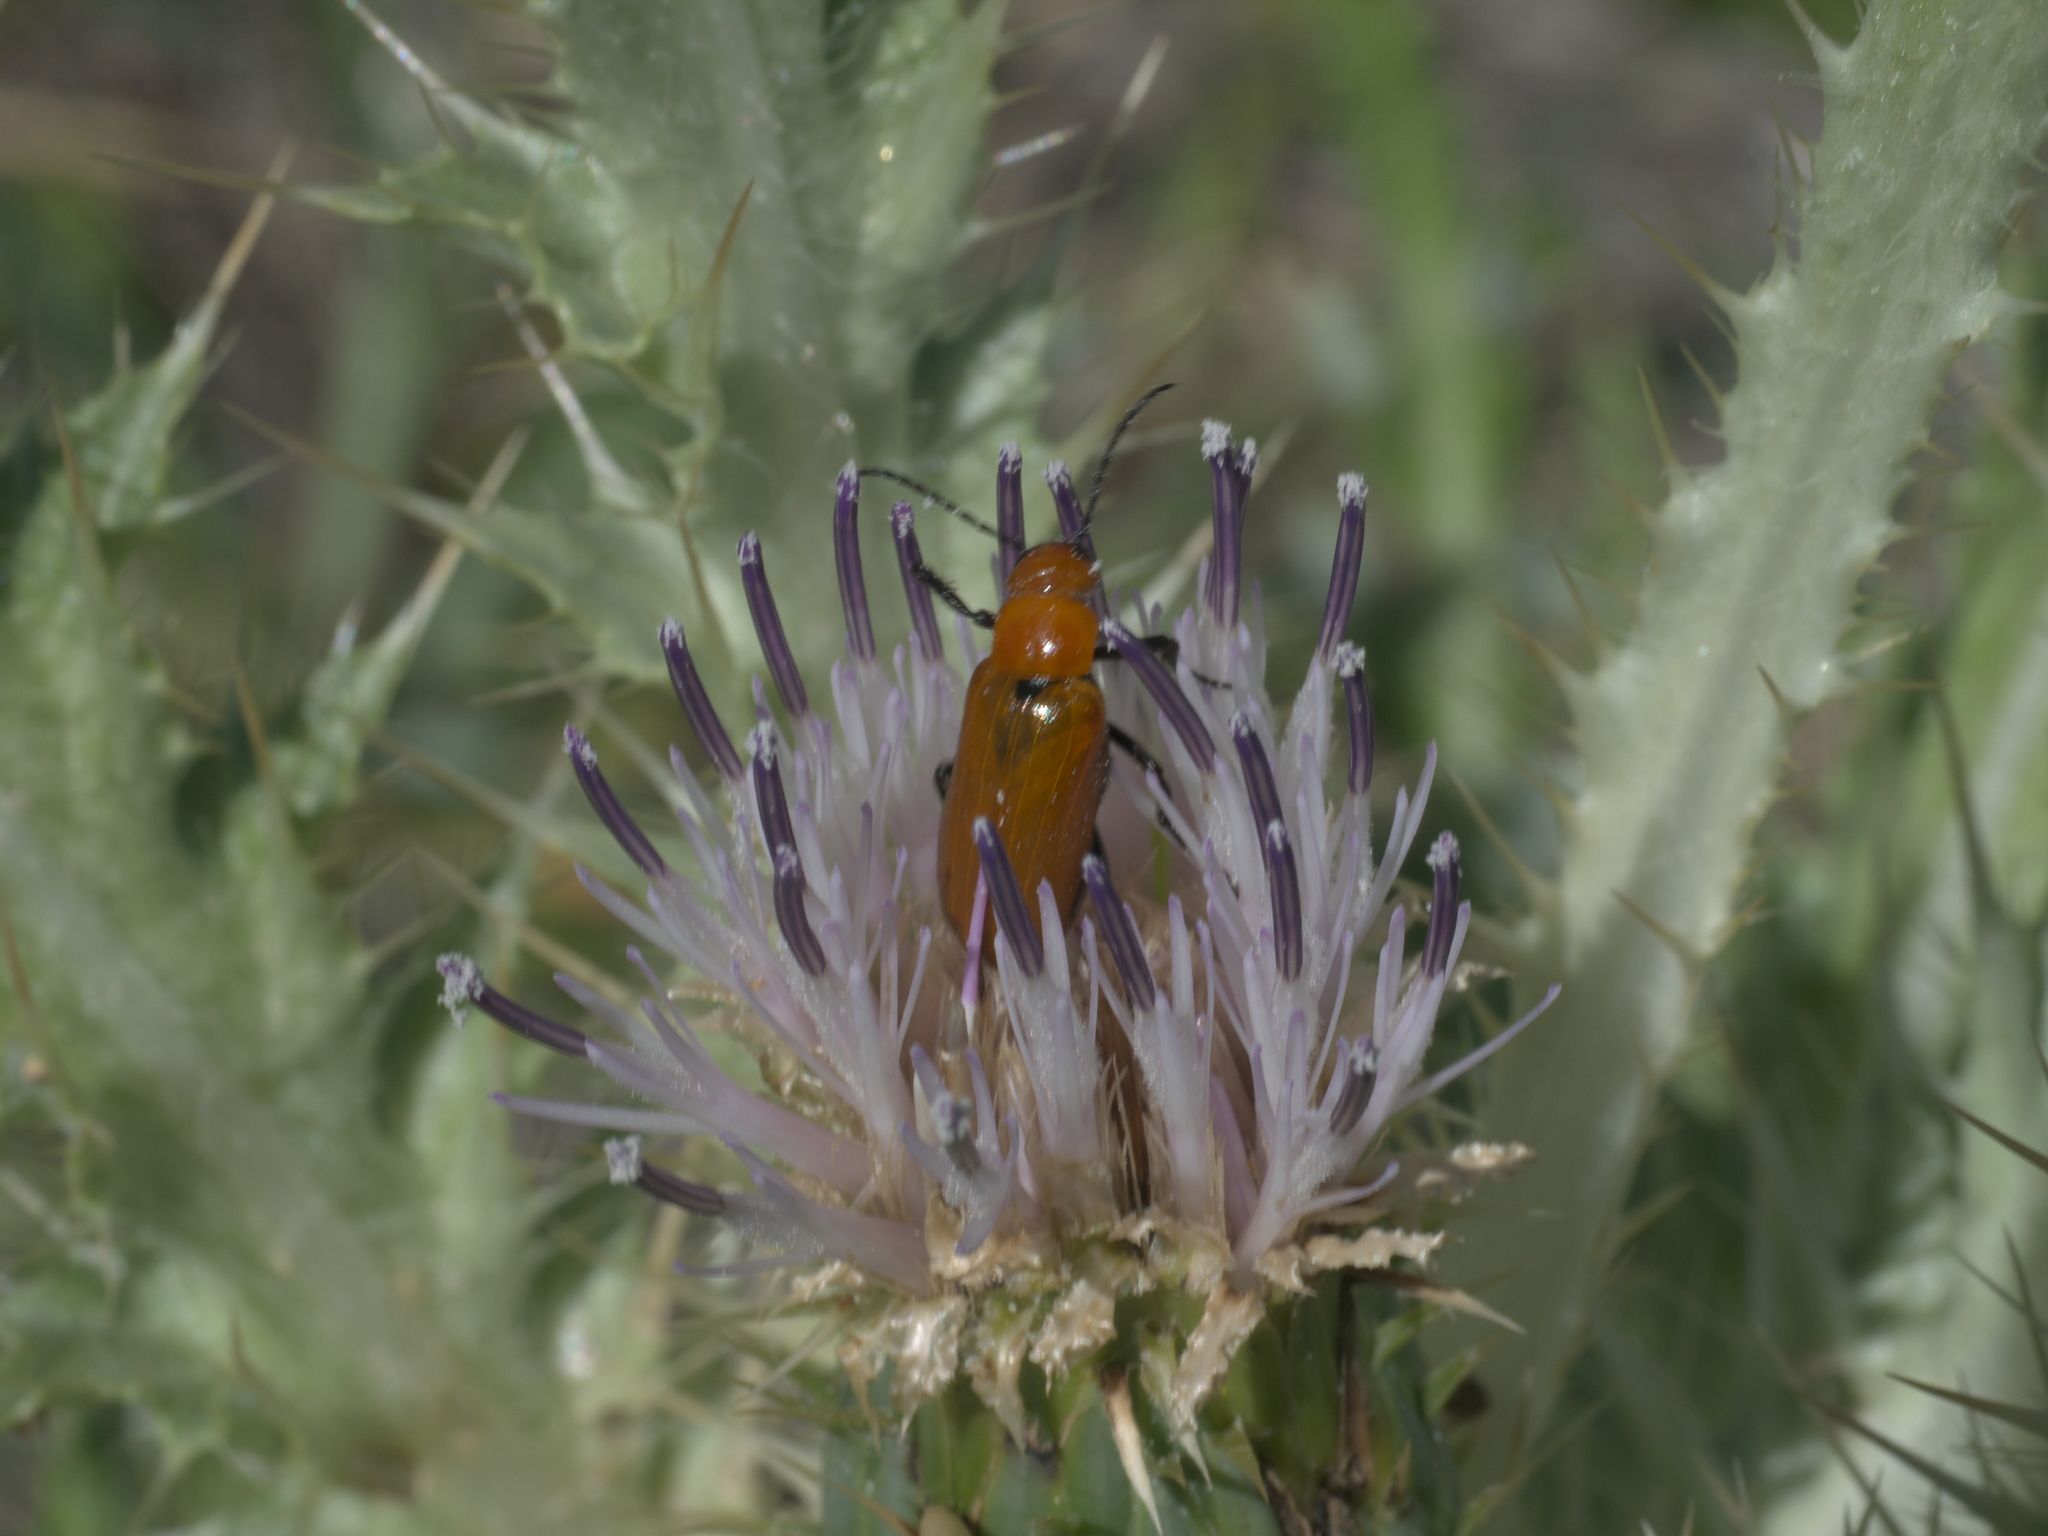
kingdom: Plantae
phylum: Tracheophyta
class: Magnoliopsida
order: Asterales
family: Asteraceae
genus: Cirsium
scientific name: Cirsium scariosum
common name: Meadow thistle
